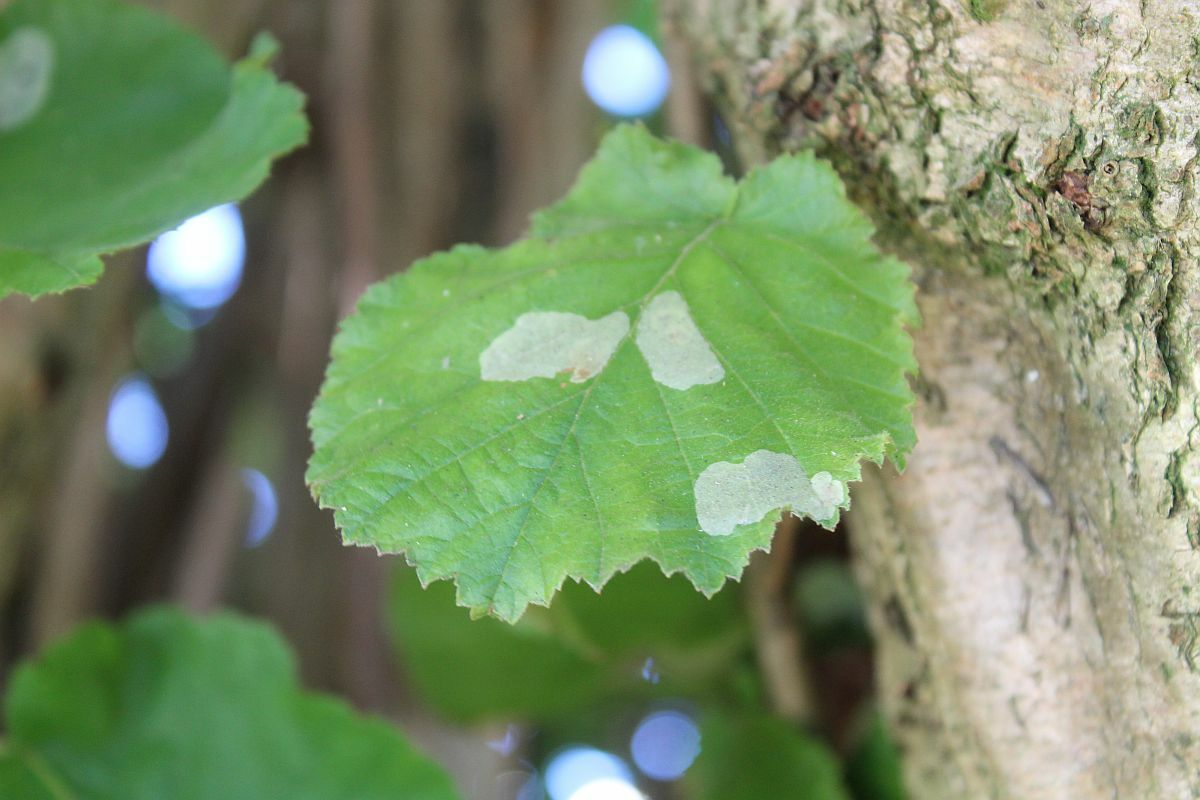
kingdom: Animalia
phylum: Arthropoda
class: Insecta
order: Lepidoptera
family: Gracillariidae
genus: Phyllonorycter
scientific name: Phyllonorycter coryli
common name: Nut-leaf blister moth
